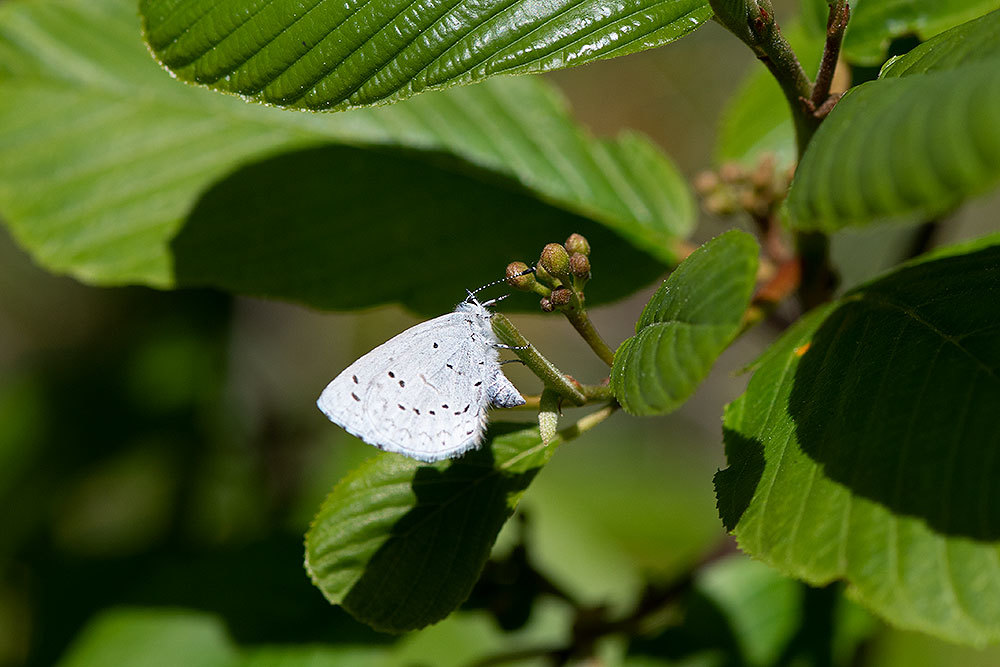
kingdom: Animalia
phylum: Arthropoda
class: Insecta
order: Lepidoptera
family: Lycaenidae
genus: Celastrina
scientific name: Celastrina ladon
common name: Spring azure
